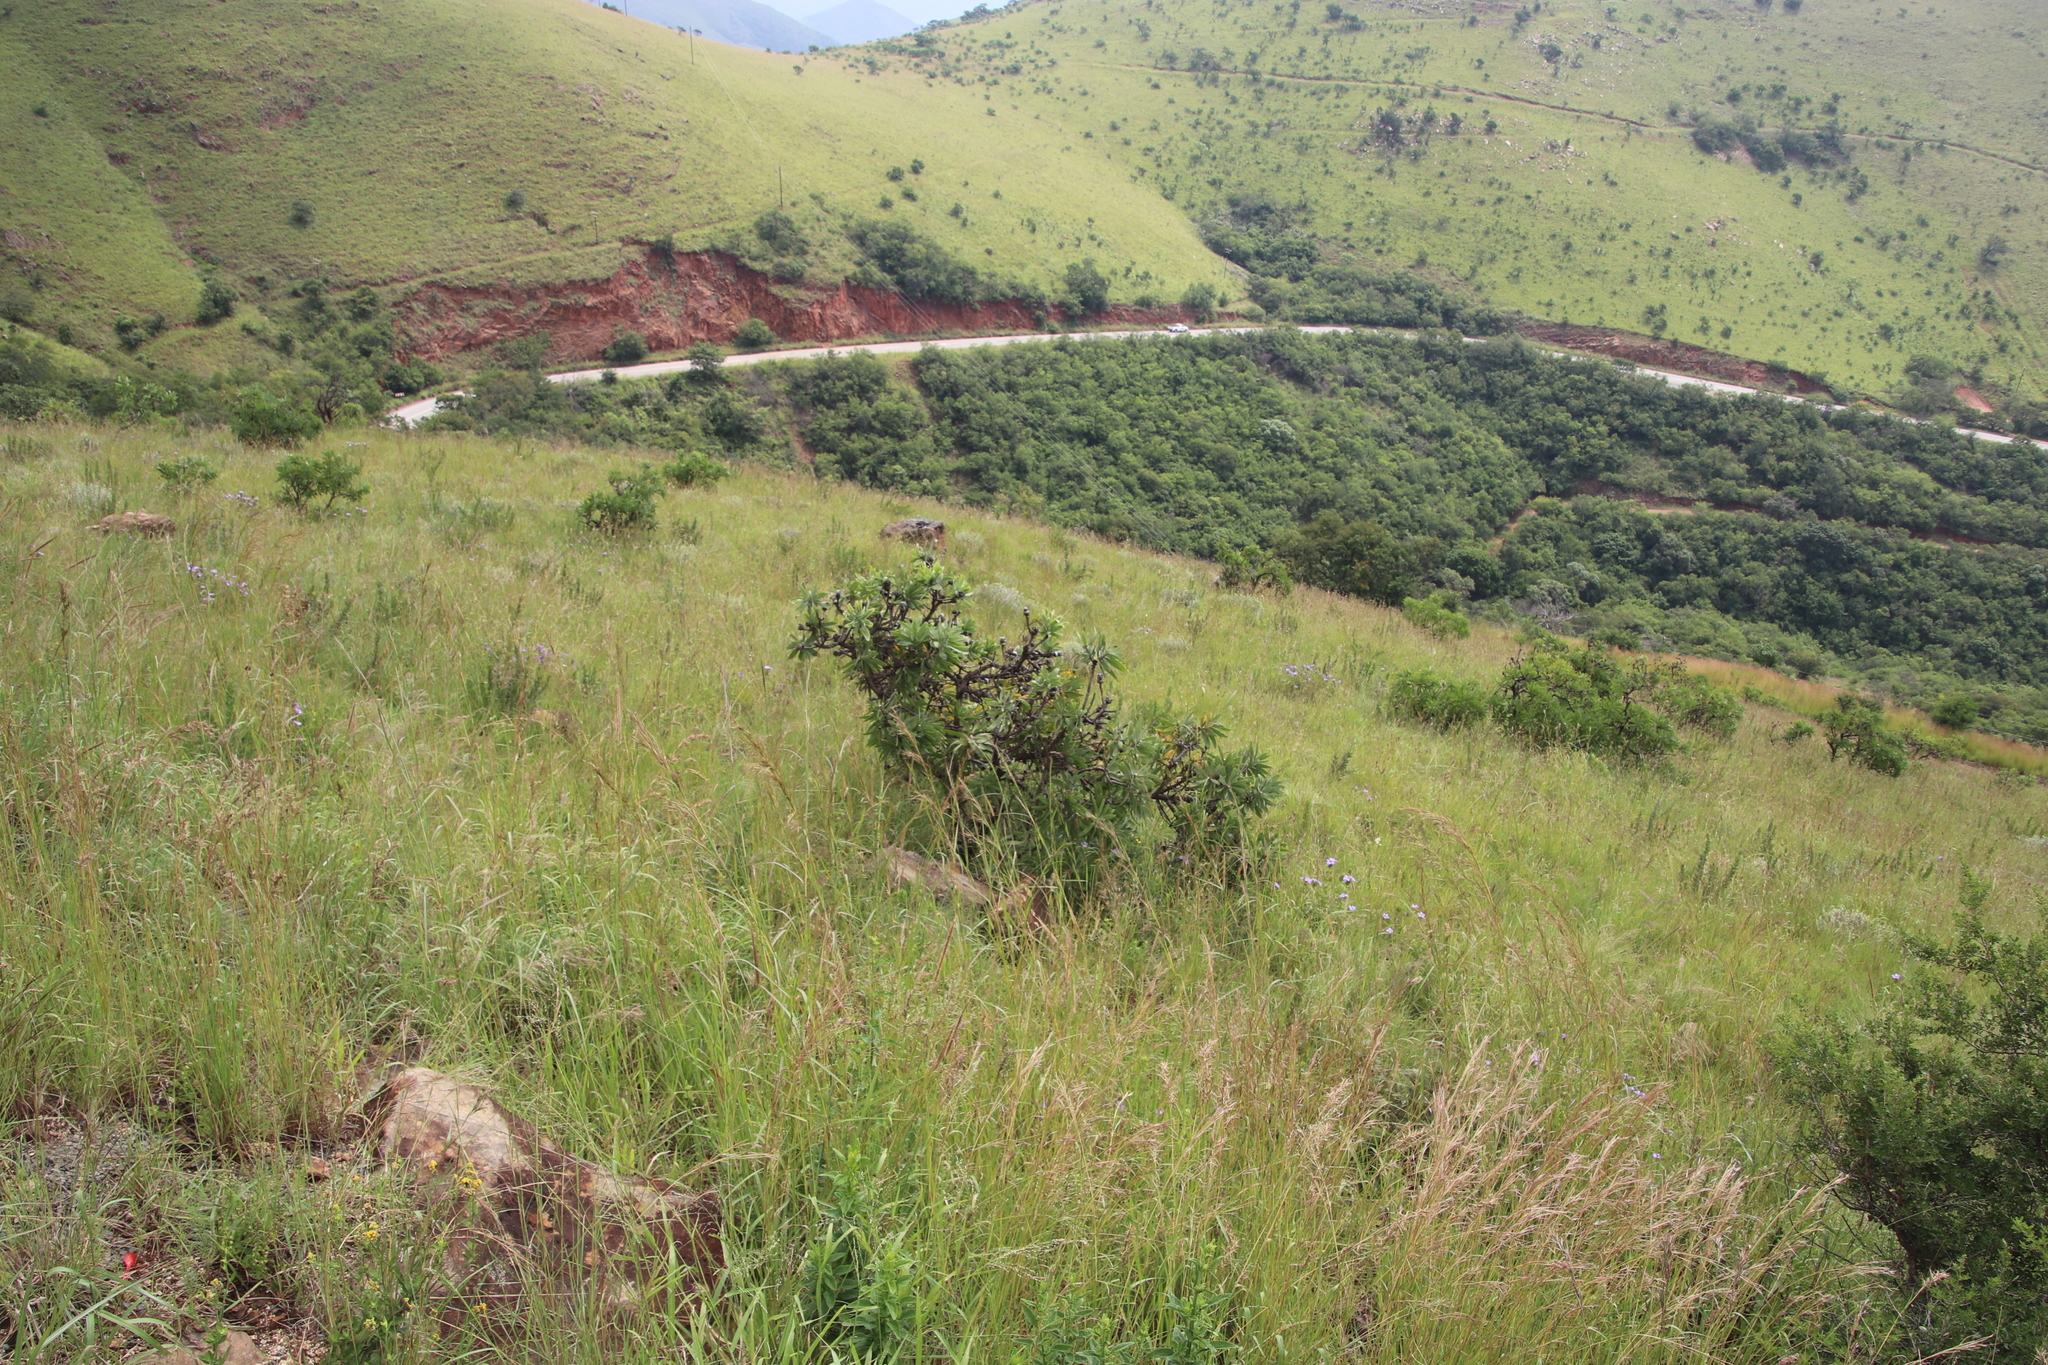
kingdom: Plantae
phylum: Tracheophyta
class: Magnoliopsida
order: Proteales
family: Proteaceae
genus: Protea
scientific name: Protea gaguedi
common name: African protea
